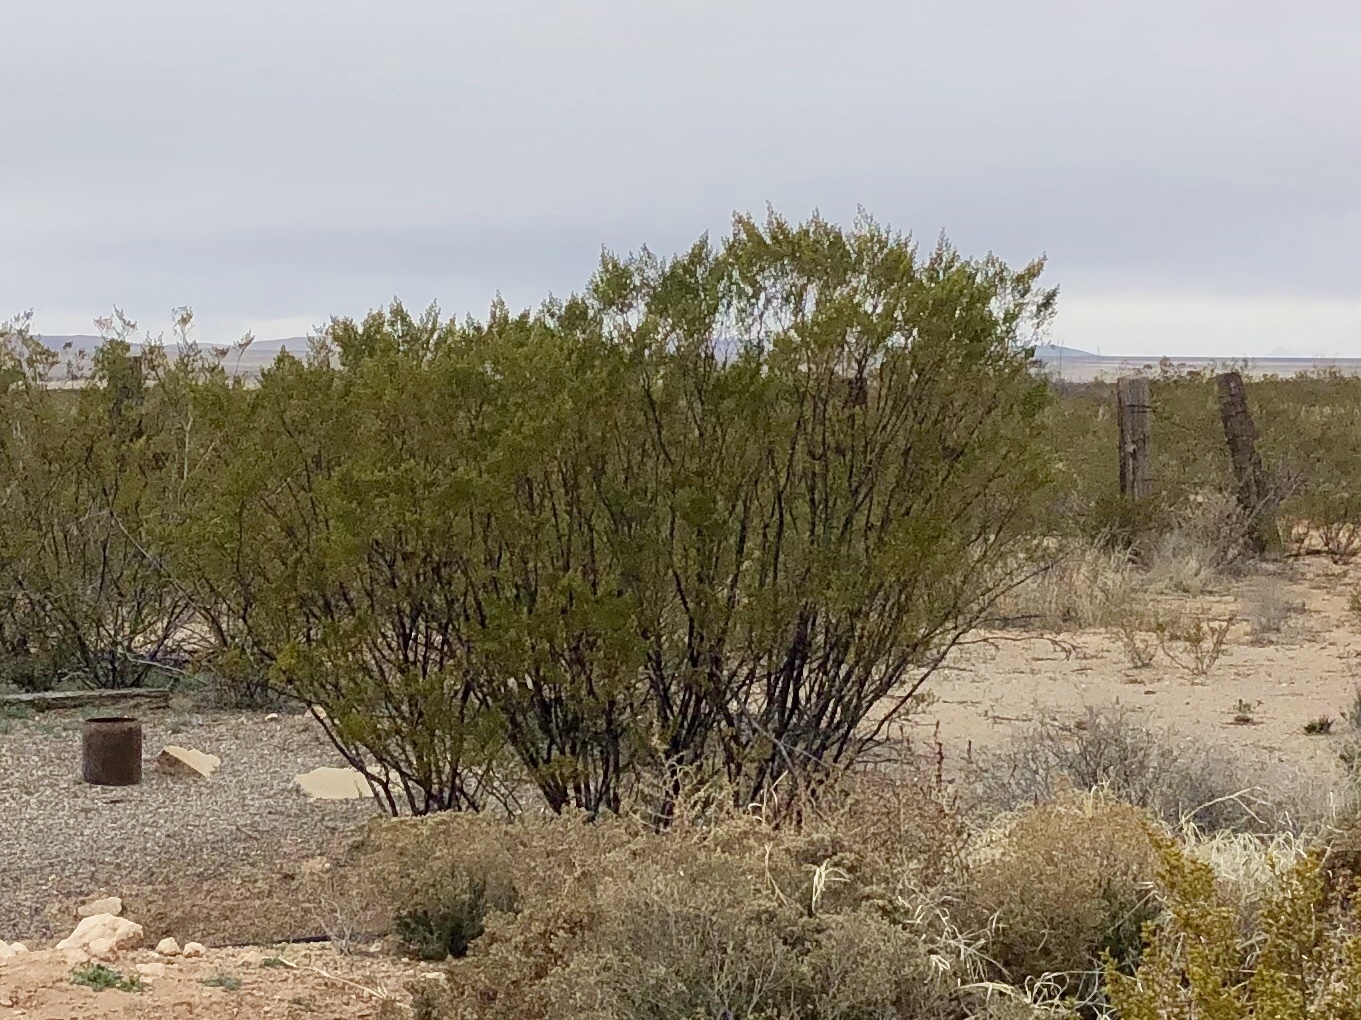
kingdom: Plantae
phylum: Tracheophyta
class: Magnoliopsida
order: Zygophyllales
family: Zygophyllaceae
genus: Larrea
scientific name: Larrea tridentata
